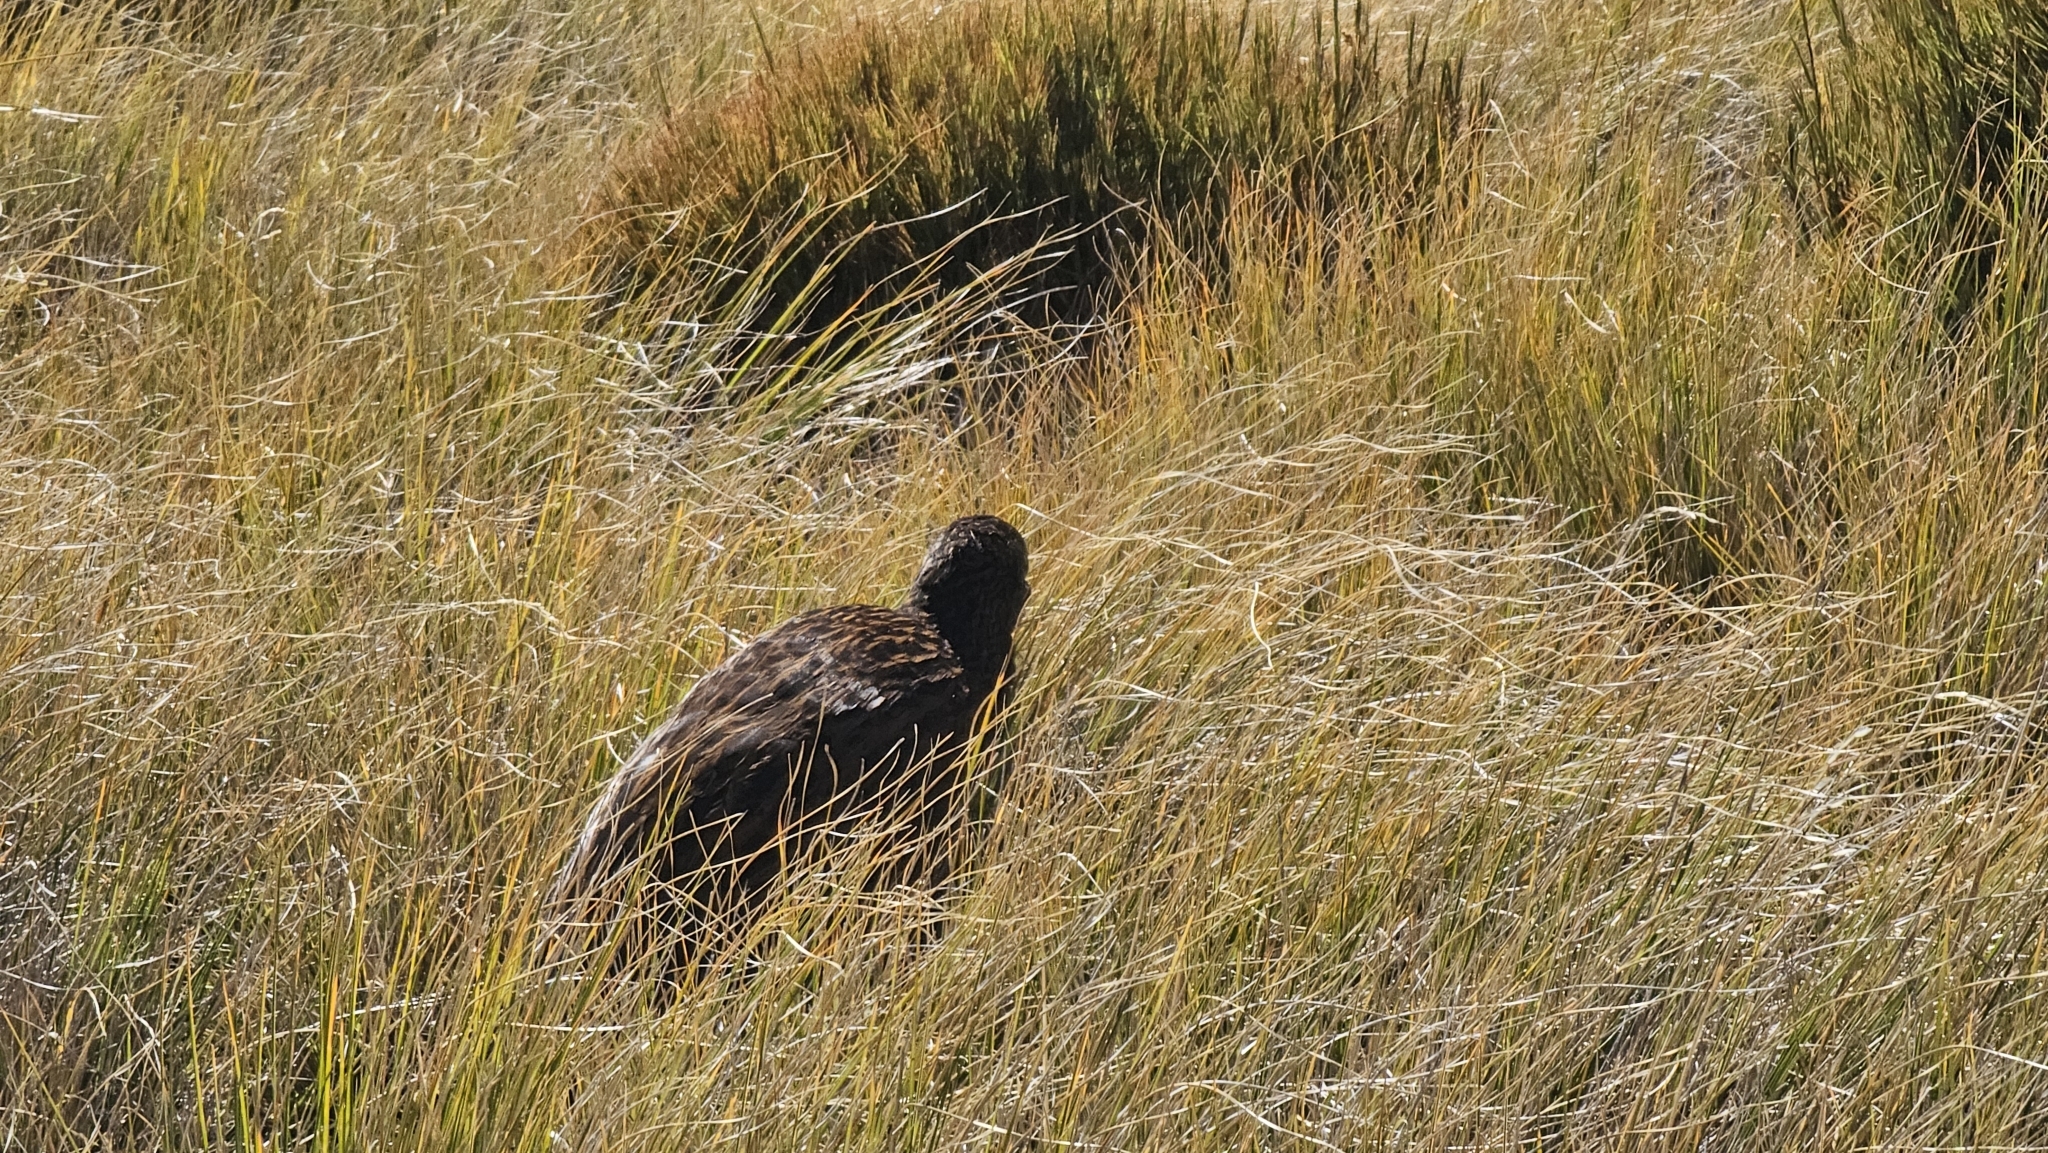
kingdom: Animalia
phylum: Chordata
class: Aves
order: Gruiformes
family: Rallidae
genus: Gallirallus
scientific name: Gallirallus australis
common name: Weka
